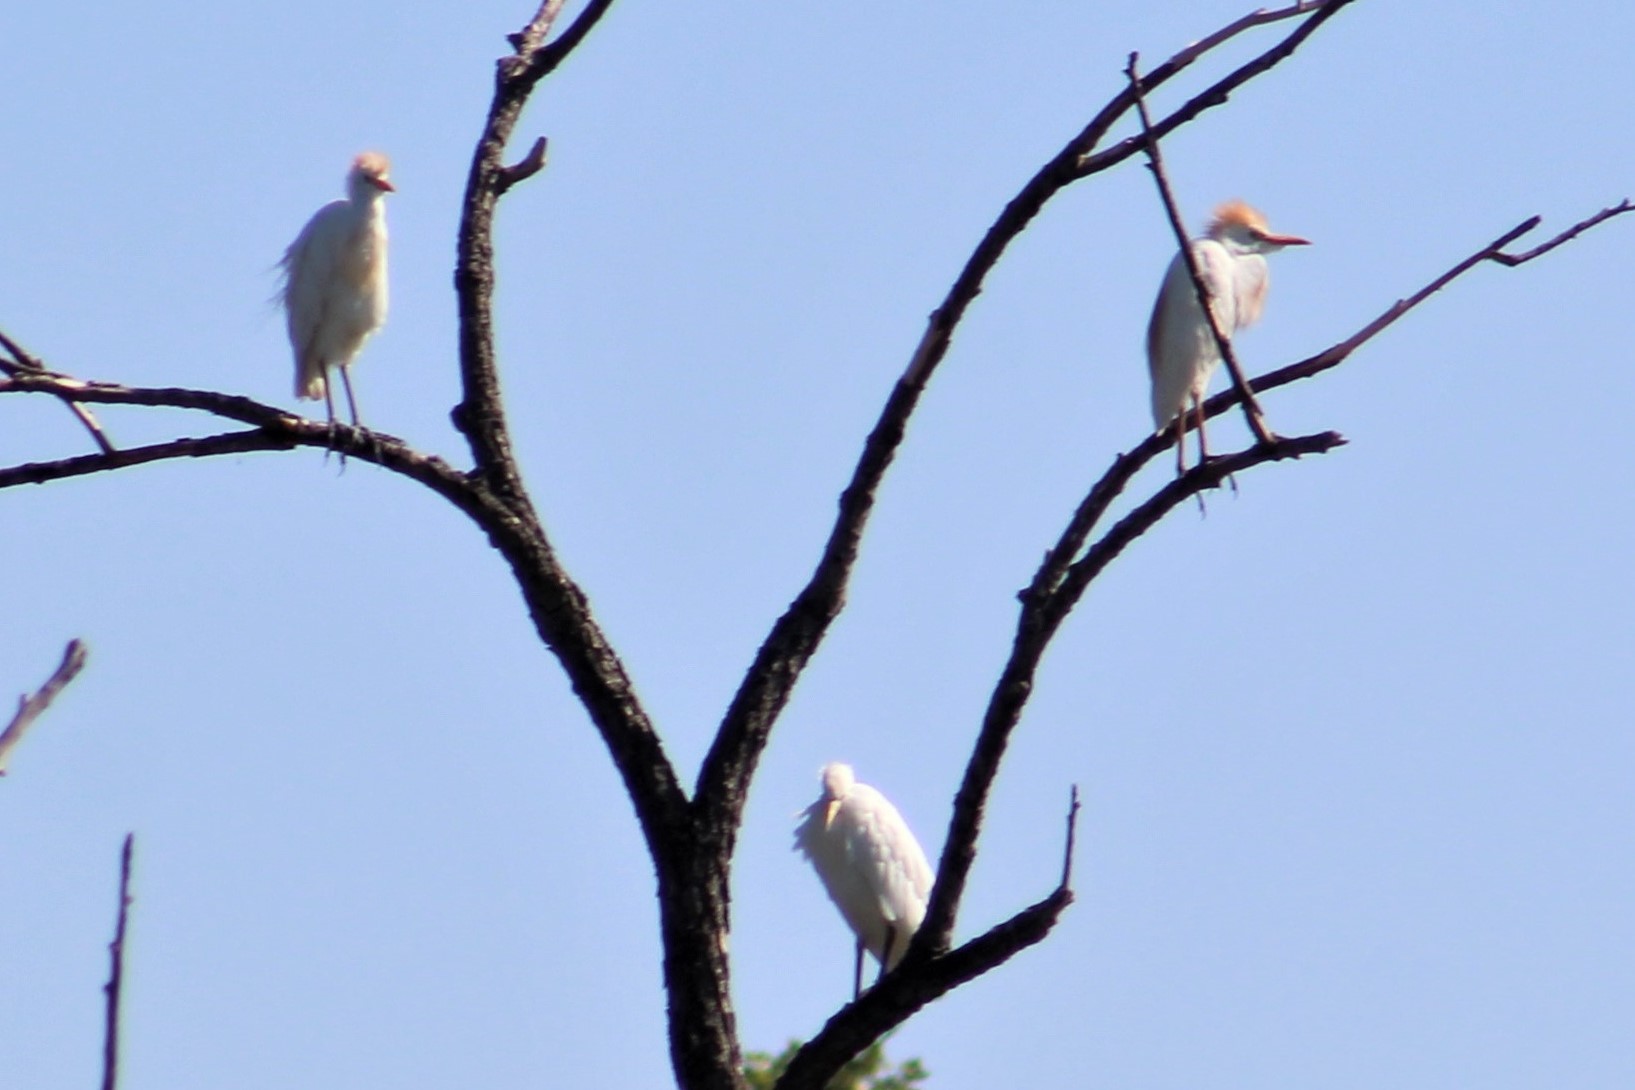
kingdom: Animalia
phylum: Chordata
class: Aves
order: Pelecaniformes
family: Ardeidae
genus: Bubulcus
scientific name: Bubulcus ibis
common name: Cattle egret
